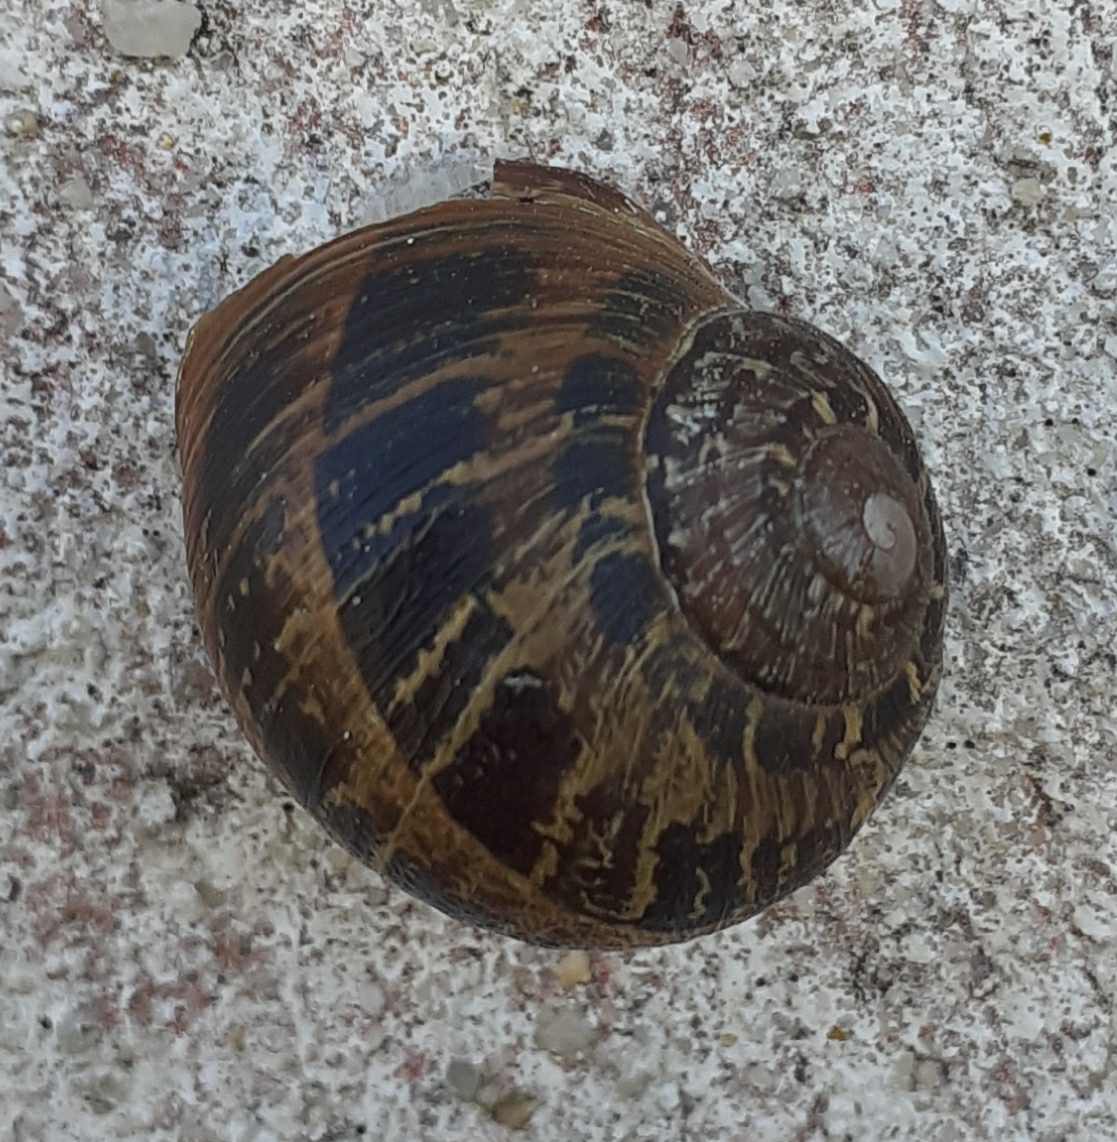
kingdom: Animalia
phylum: Mollusca
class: Gastropoda
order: Stylommatophora
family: Helicidae
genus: Cornu
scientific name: Cornu aspersum
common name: Brown garden snail
